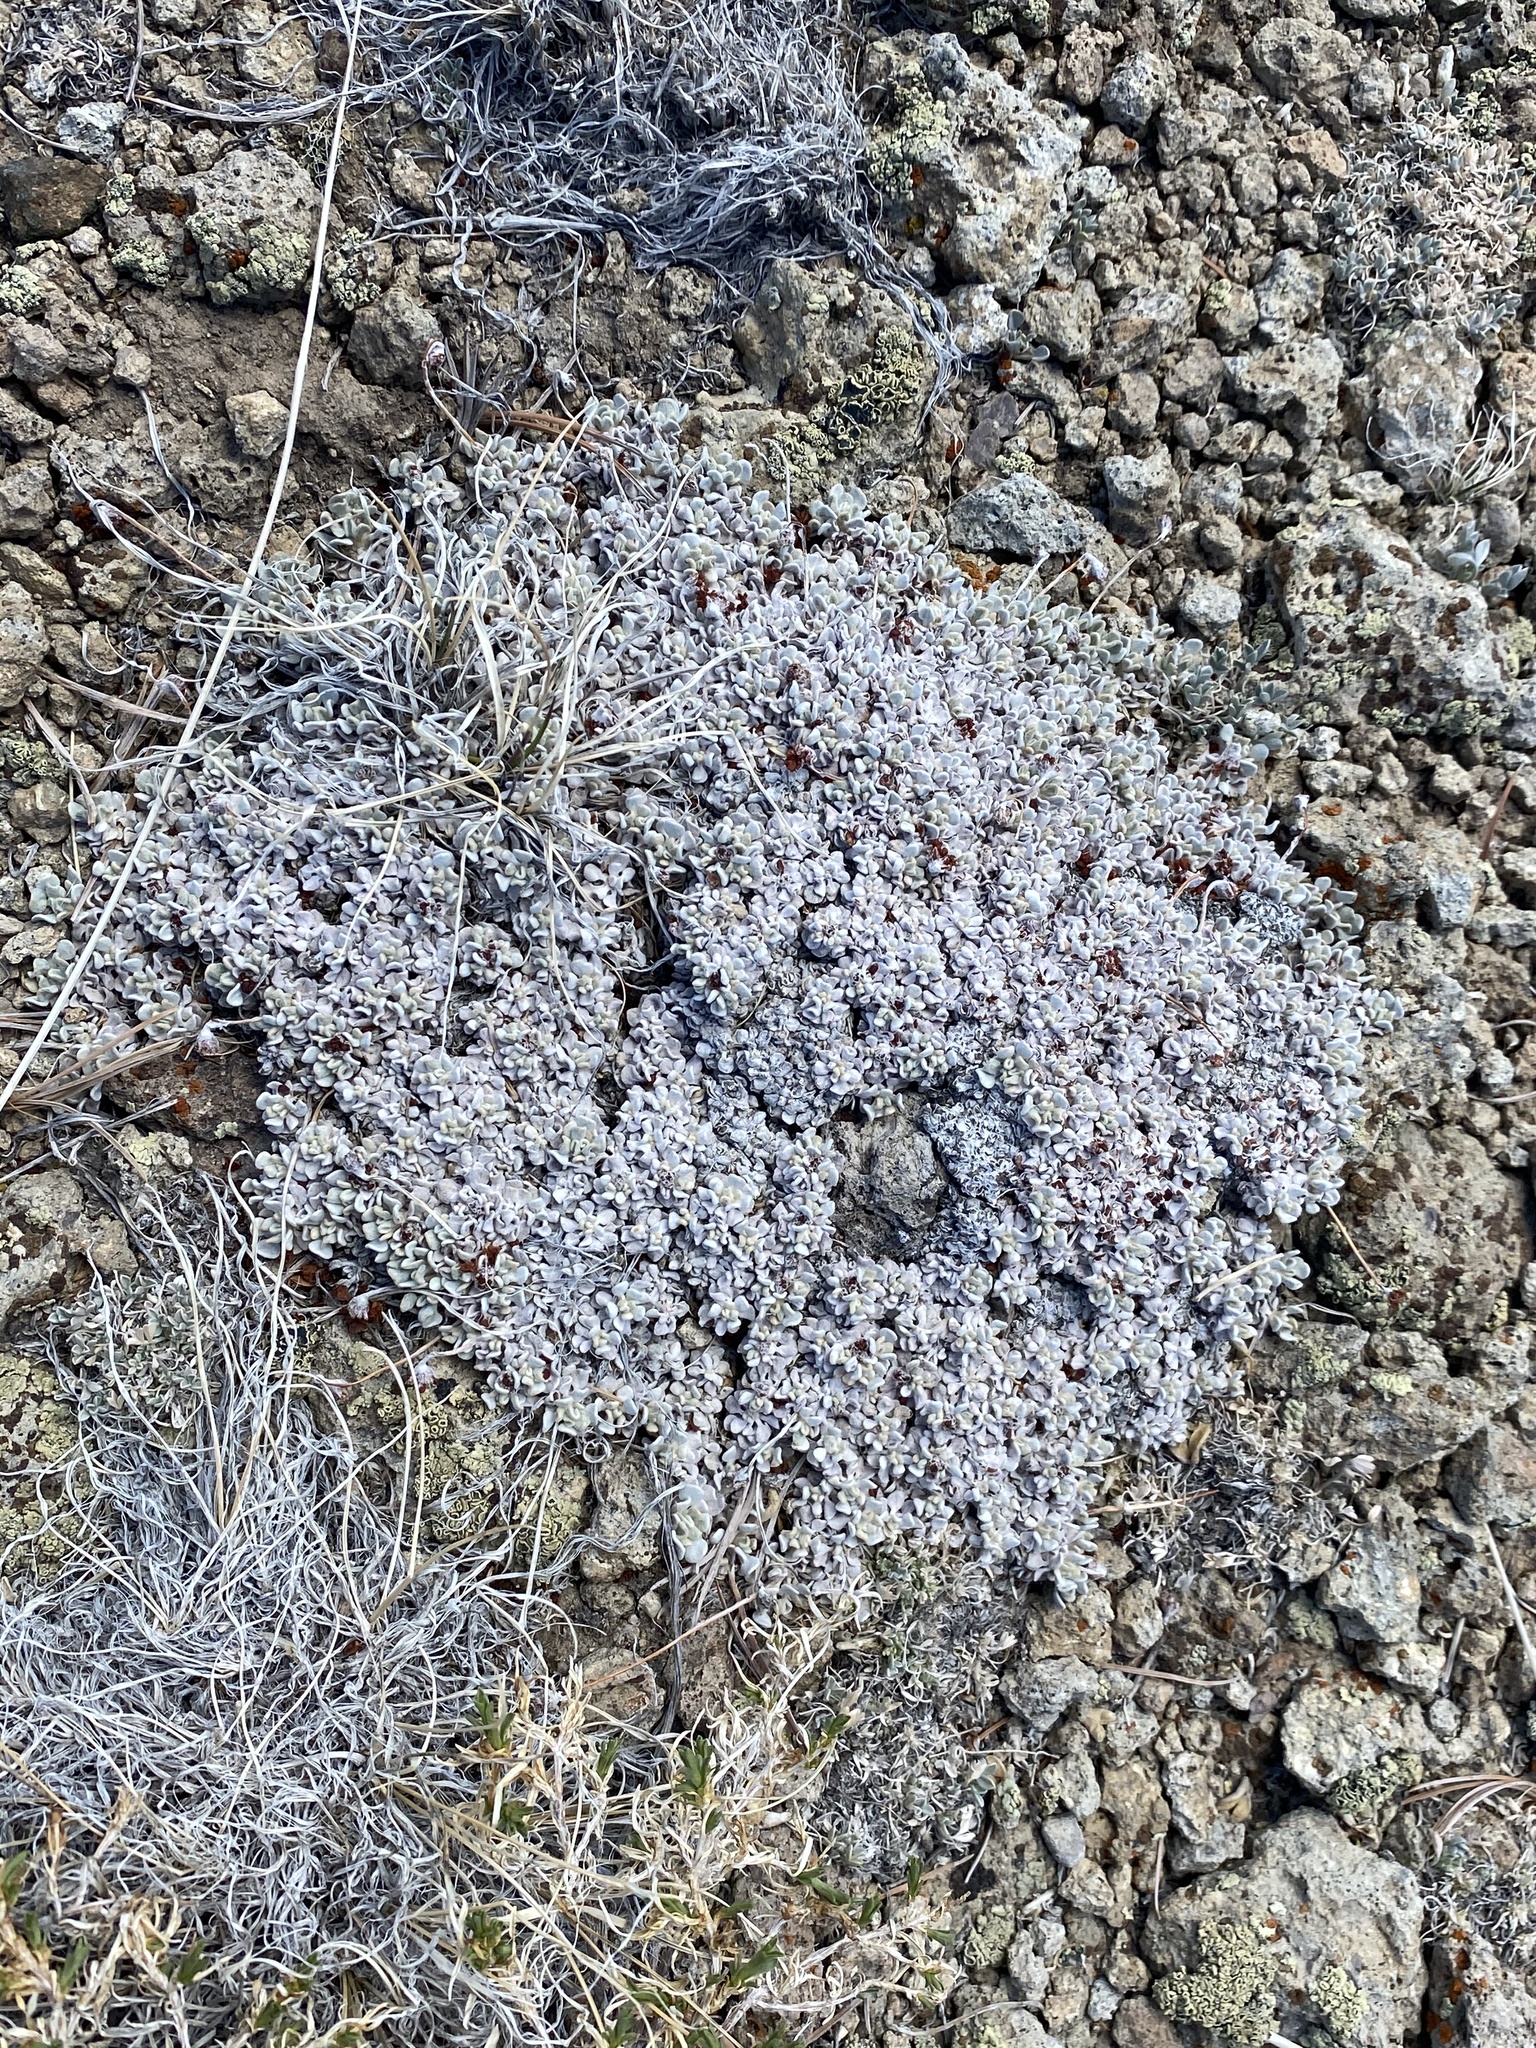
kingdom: Plantae
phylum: Tracheophyta
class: Magnoliopsida
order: Caryophyllales
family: Polygonaceae
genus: Eriogonum
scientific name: Eriogonum ovalifolium
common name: Cushion buckwheat
